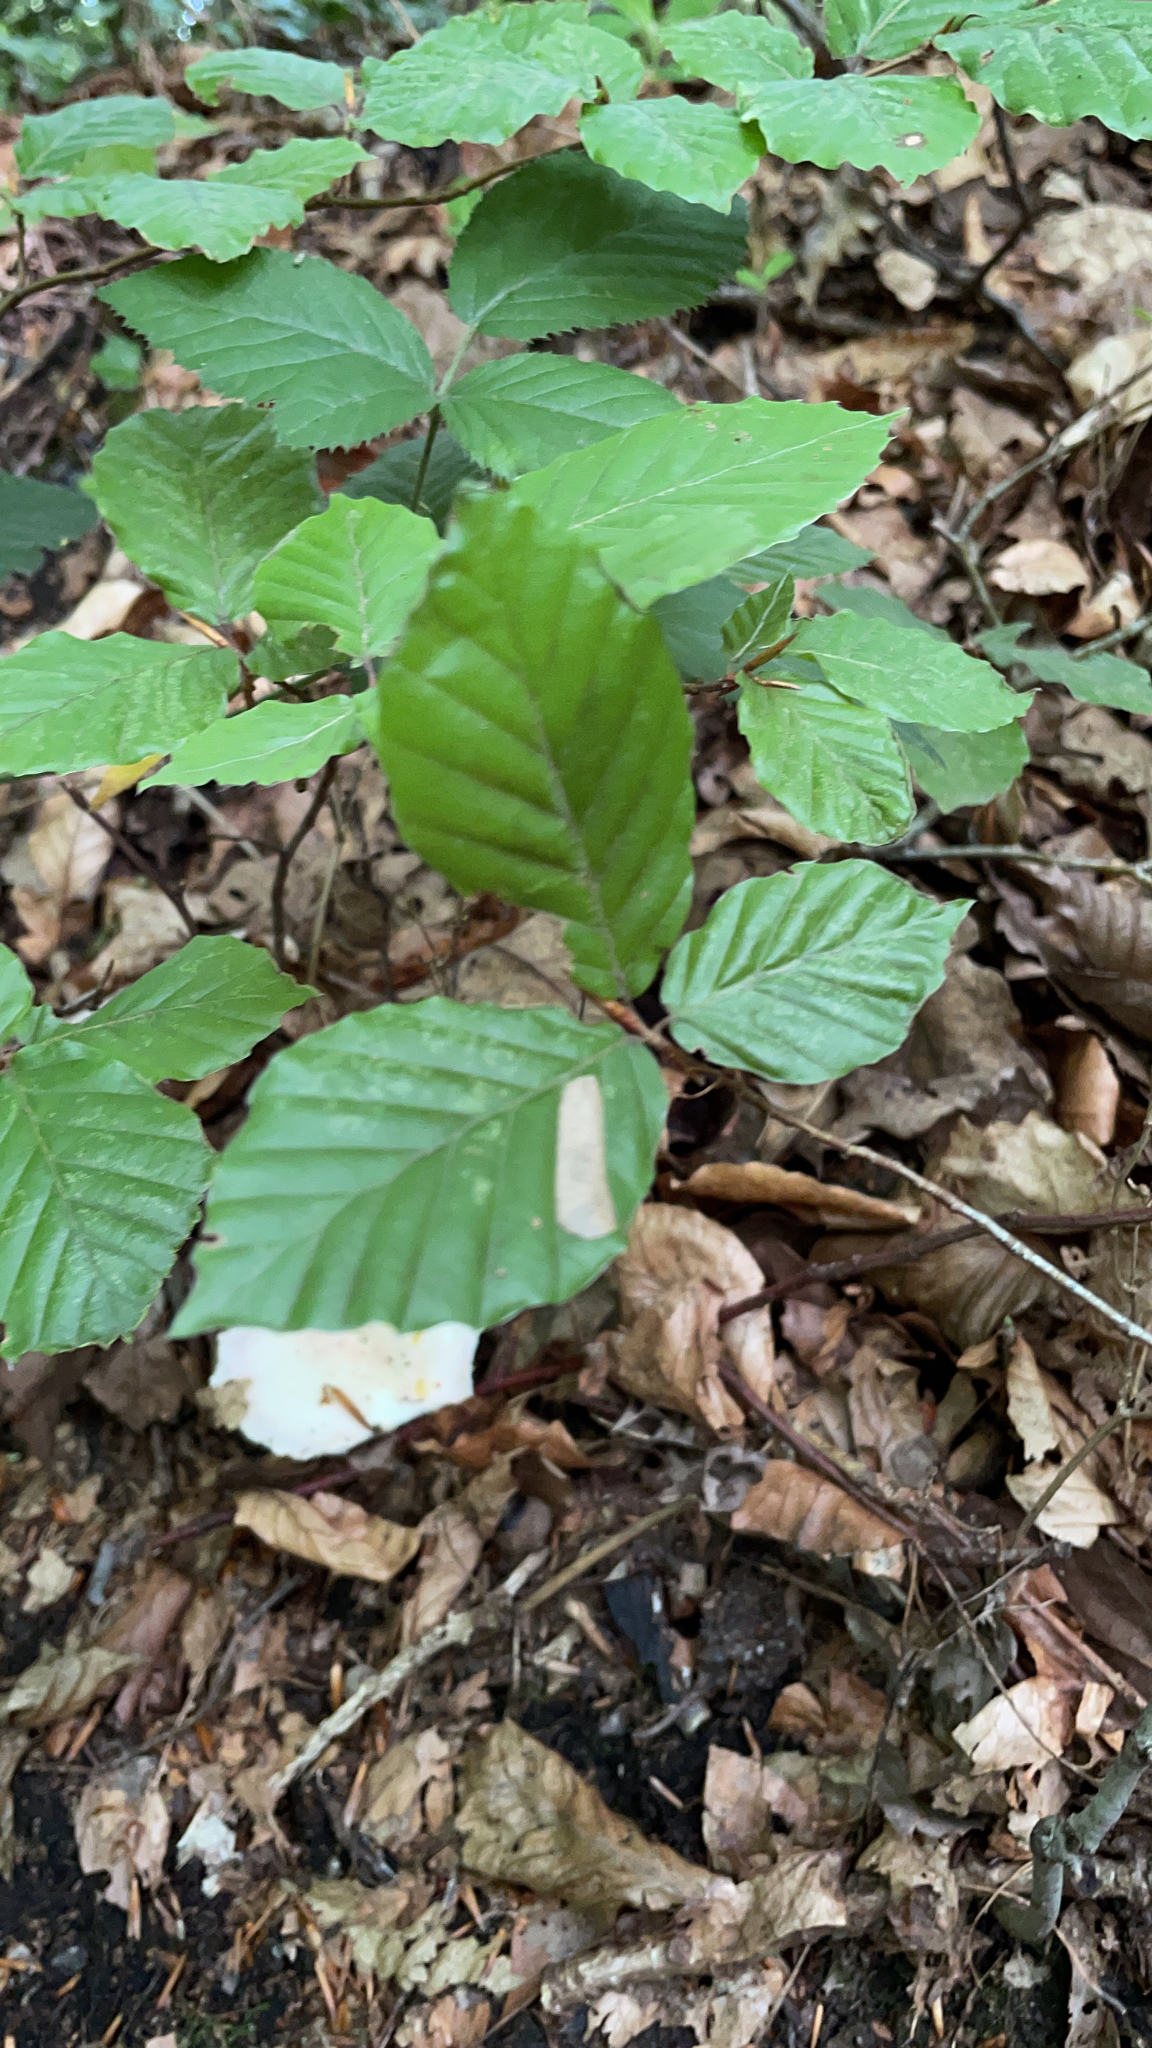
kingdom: Plantae
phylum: Tracheophyta
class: Magnoliopsida
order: Fagales
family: Fagaceae
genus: Fagus
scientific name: Fagus sylvatica
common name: Beech
